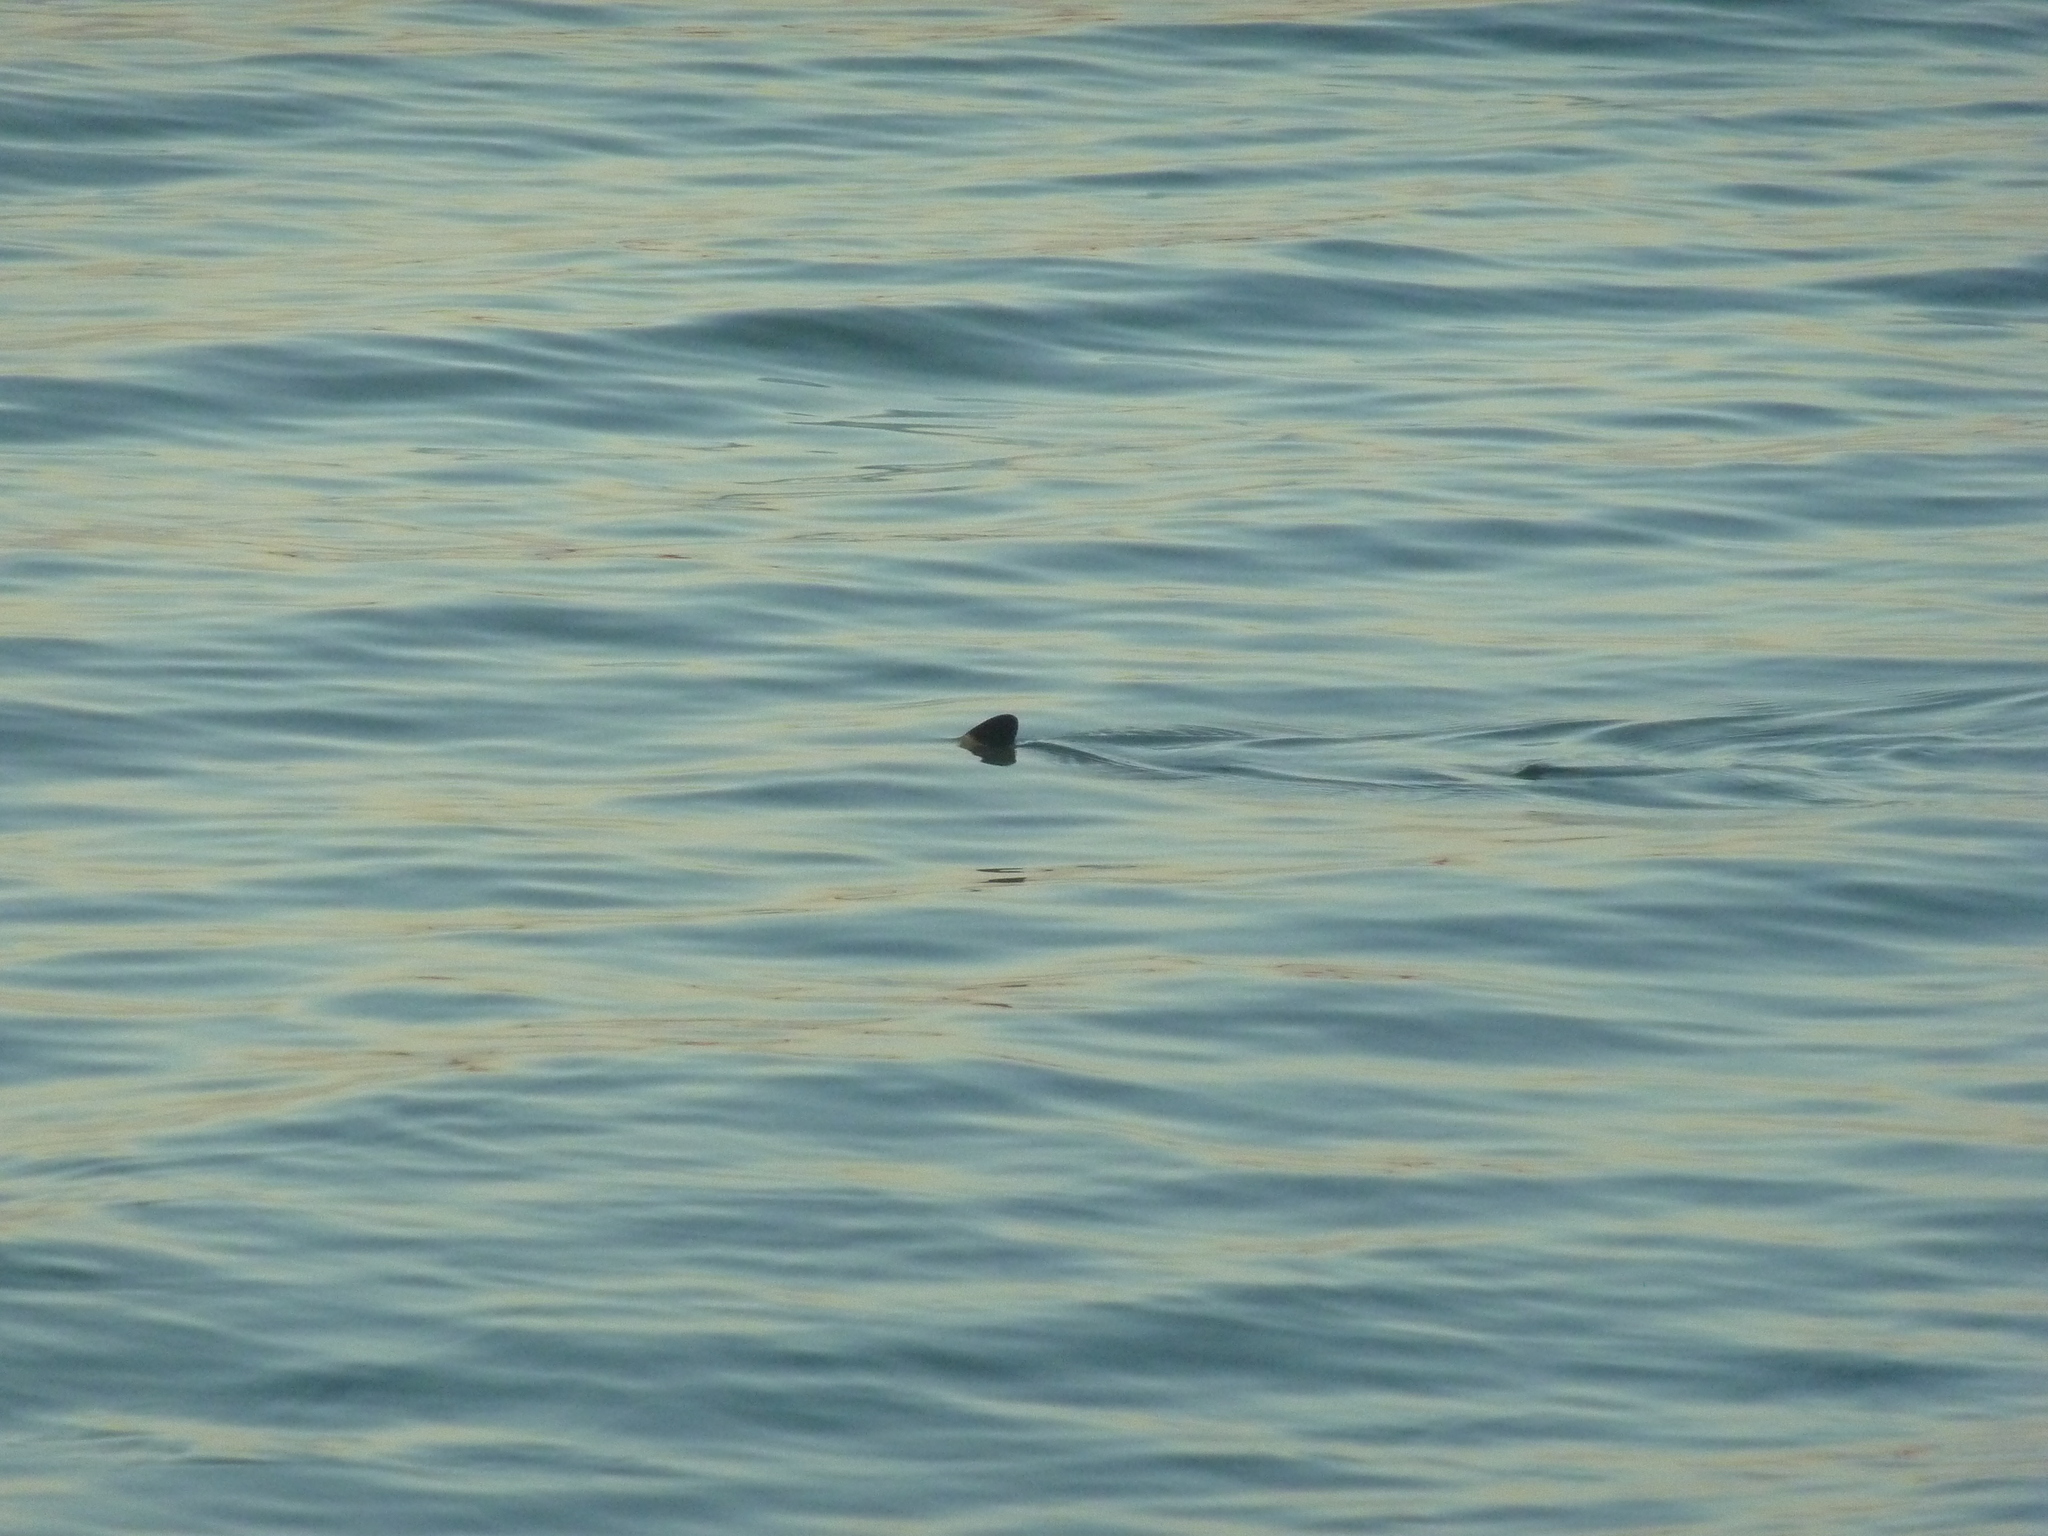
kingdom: Animalia
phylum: Chordata
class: Elasmobranchii
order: Carcharhiniformes
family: Carcharhinidae
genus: Carcharhinus
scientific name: Carcharhinus melanopterus
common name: Blacktip reef shark
